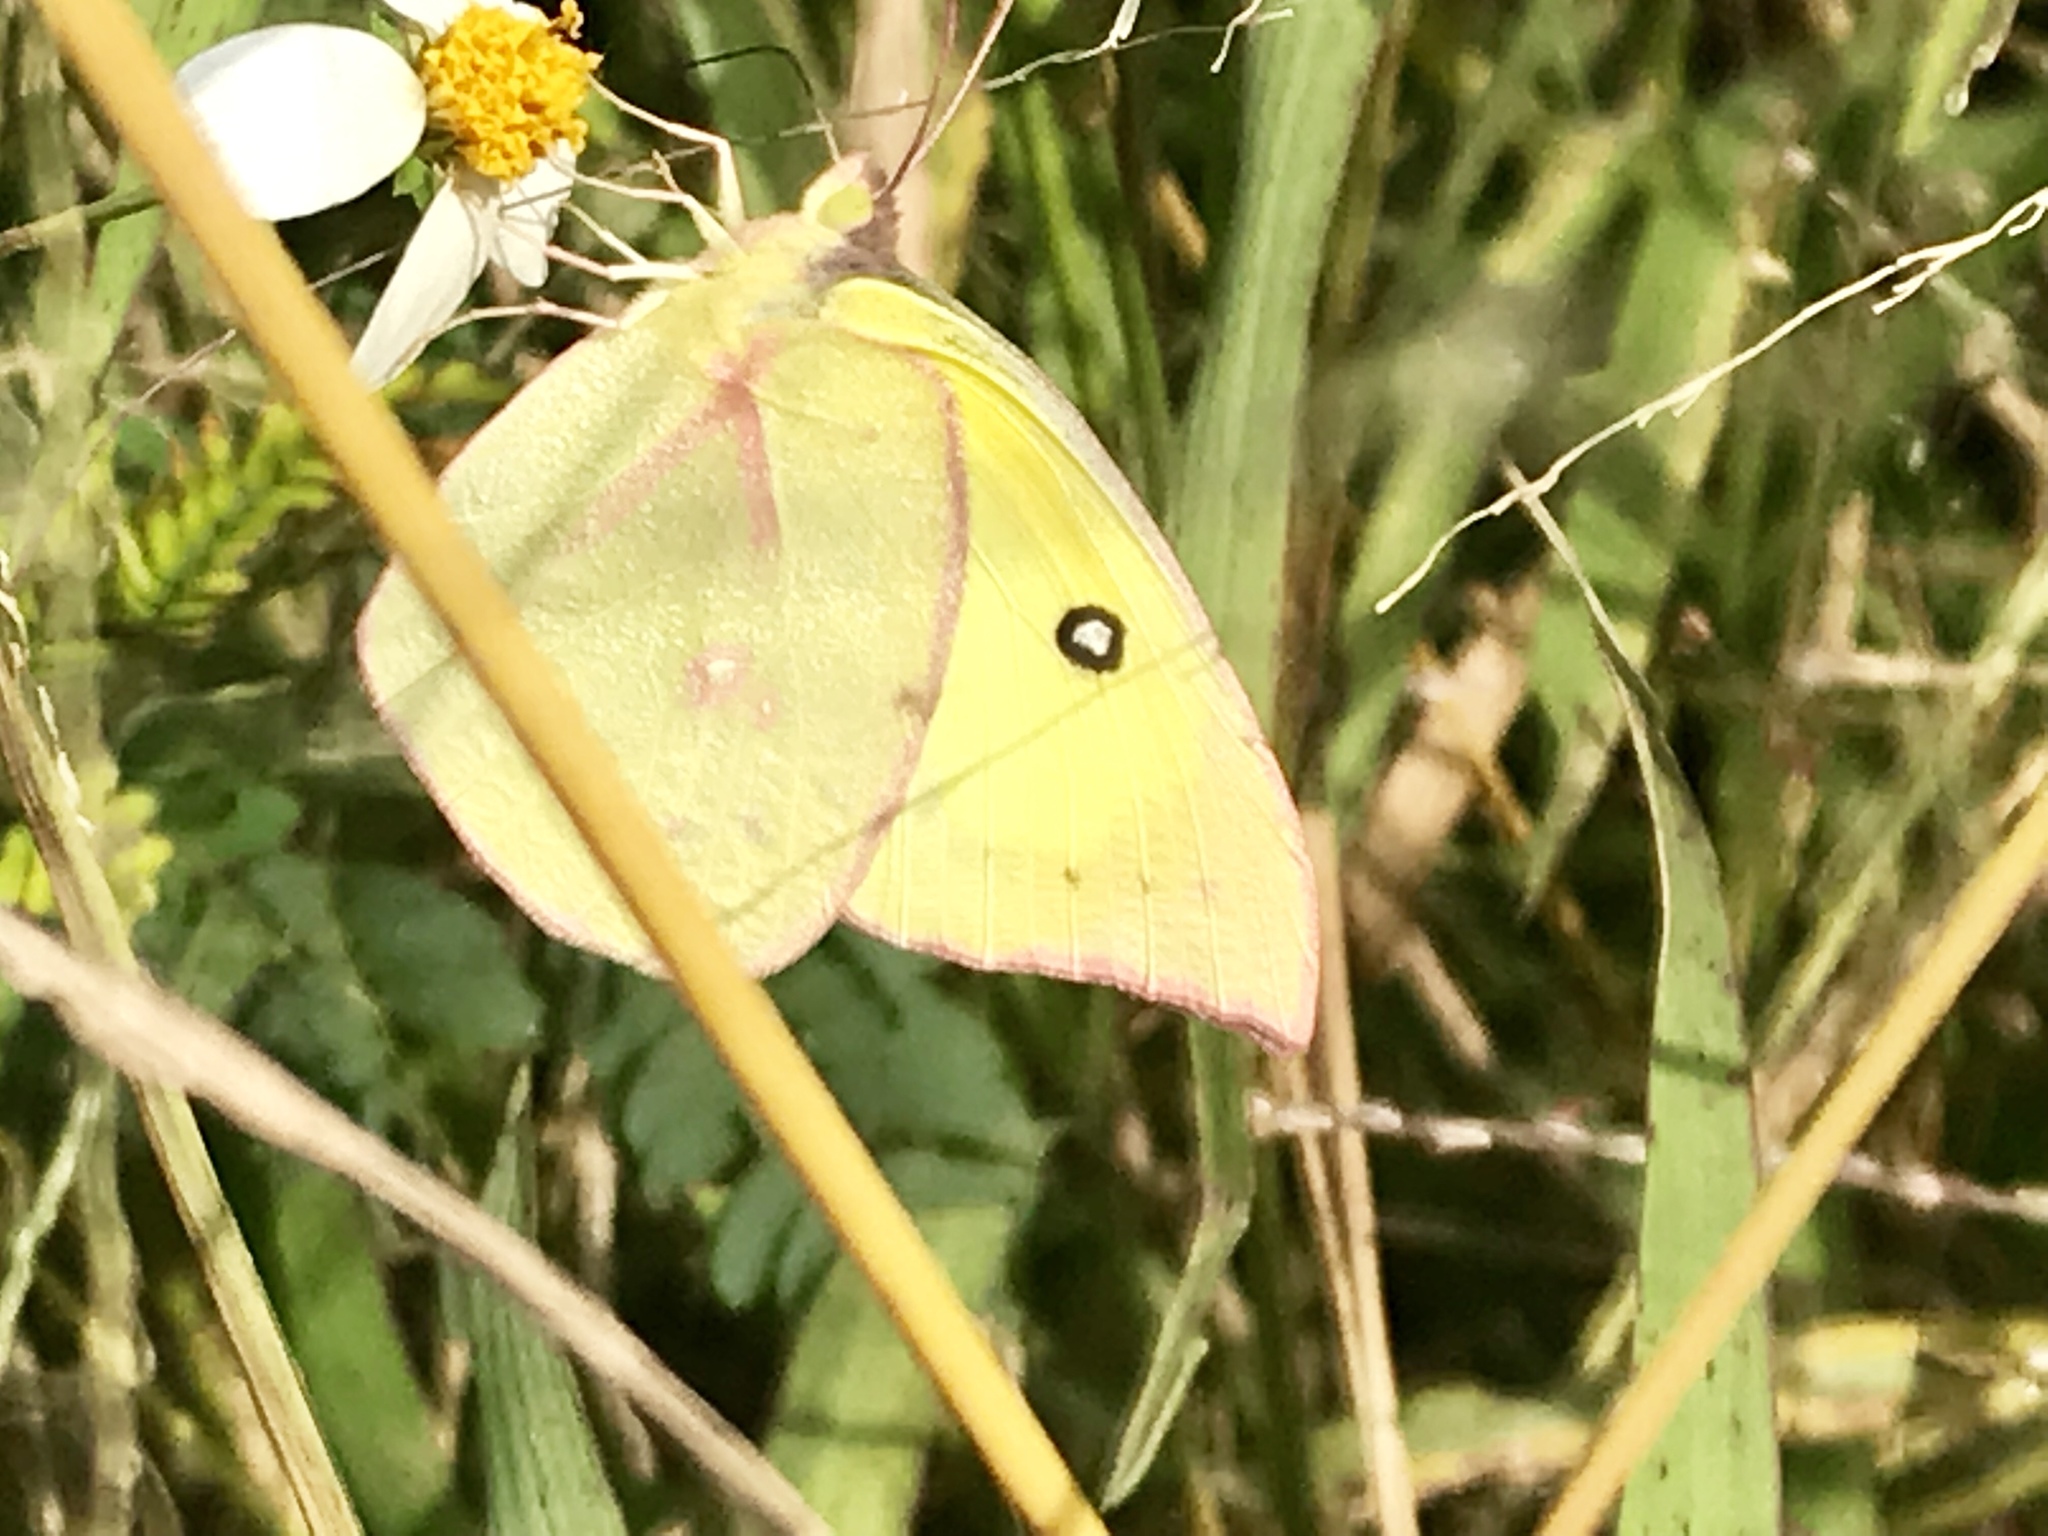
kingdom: Animalia
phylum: Arthropoda
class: Insecta
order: Lepidoptera
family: Pieridae
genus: Zerene
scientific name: Zerene cesonia
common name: Southern dogface
